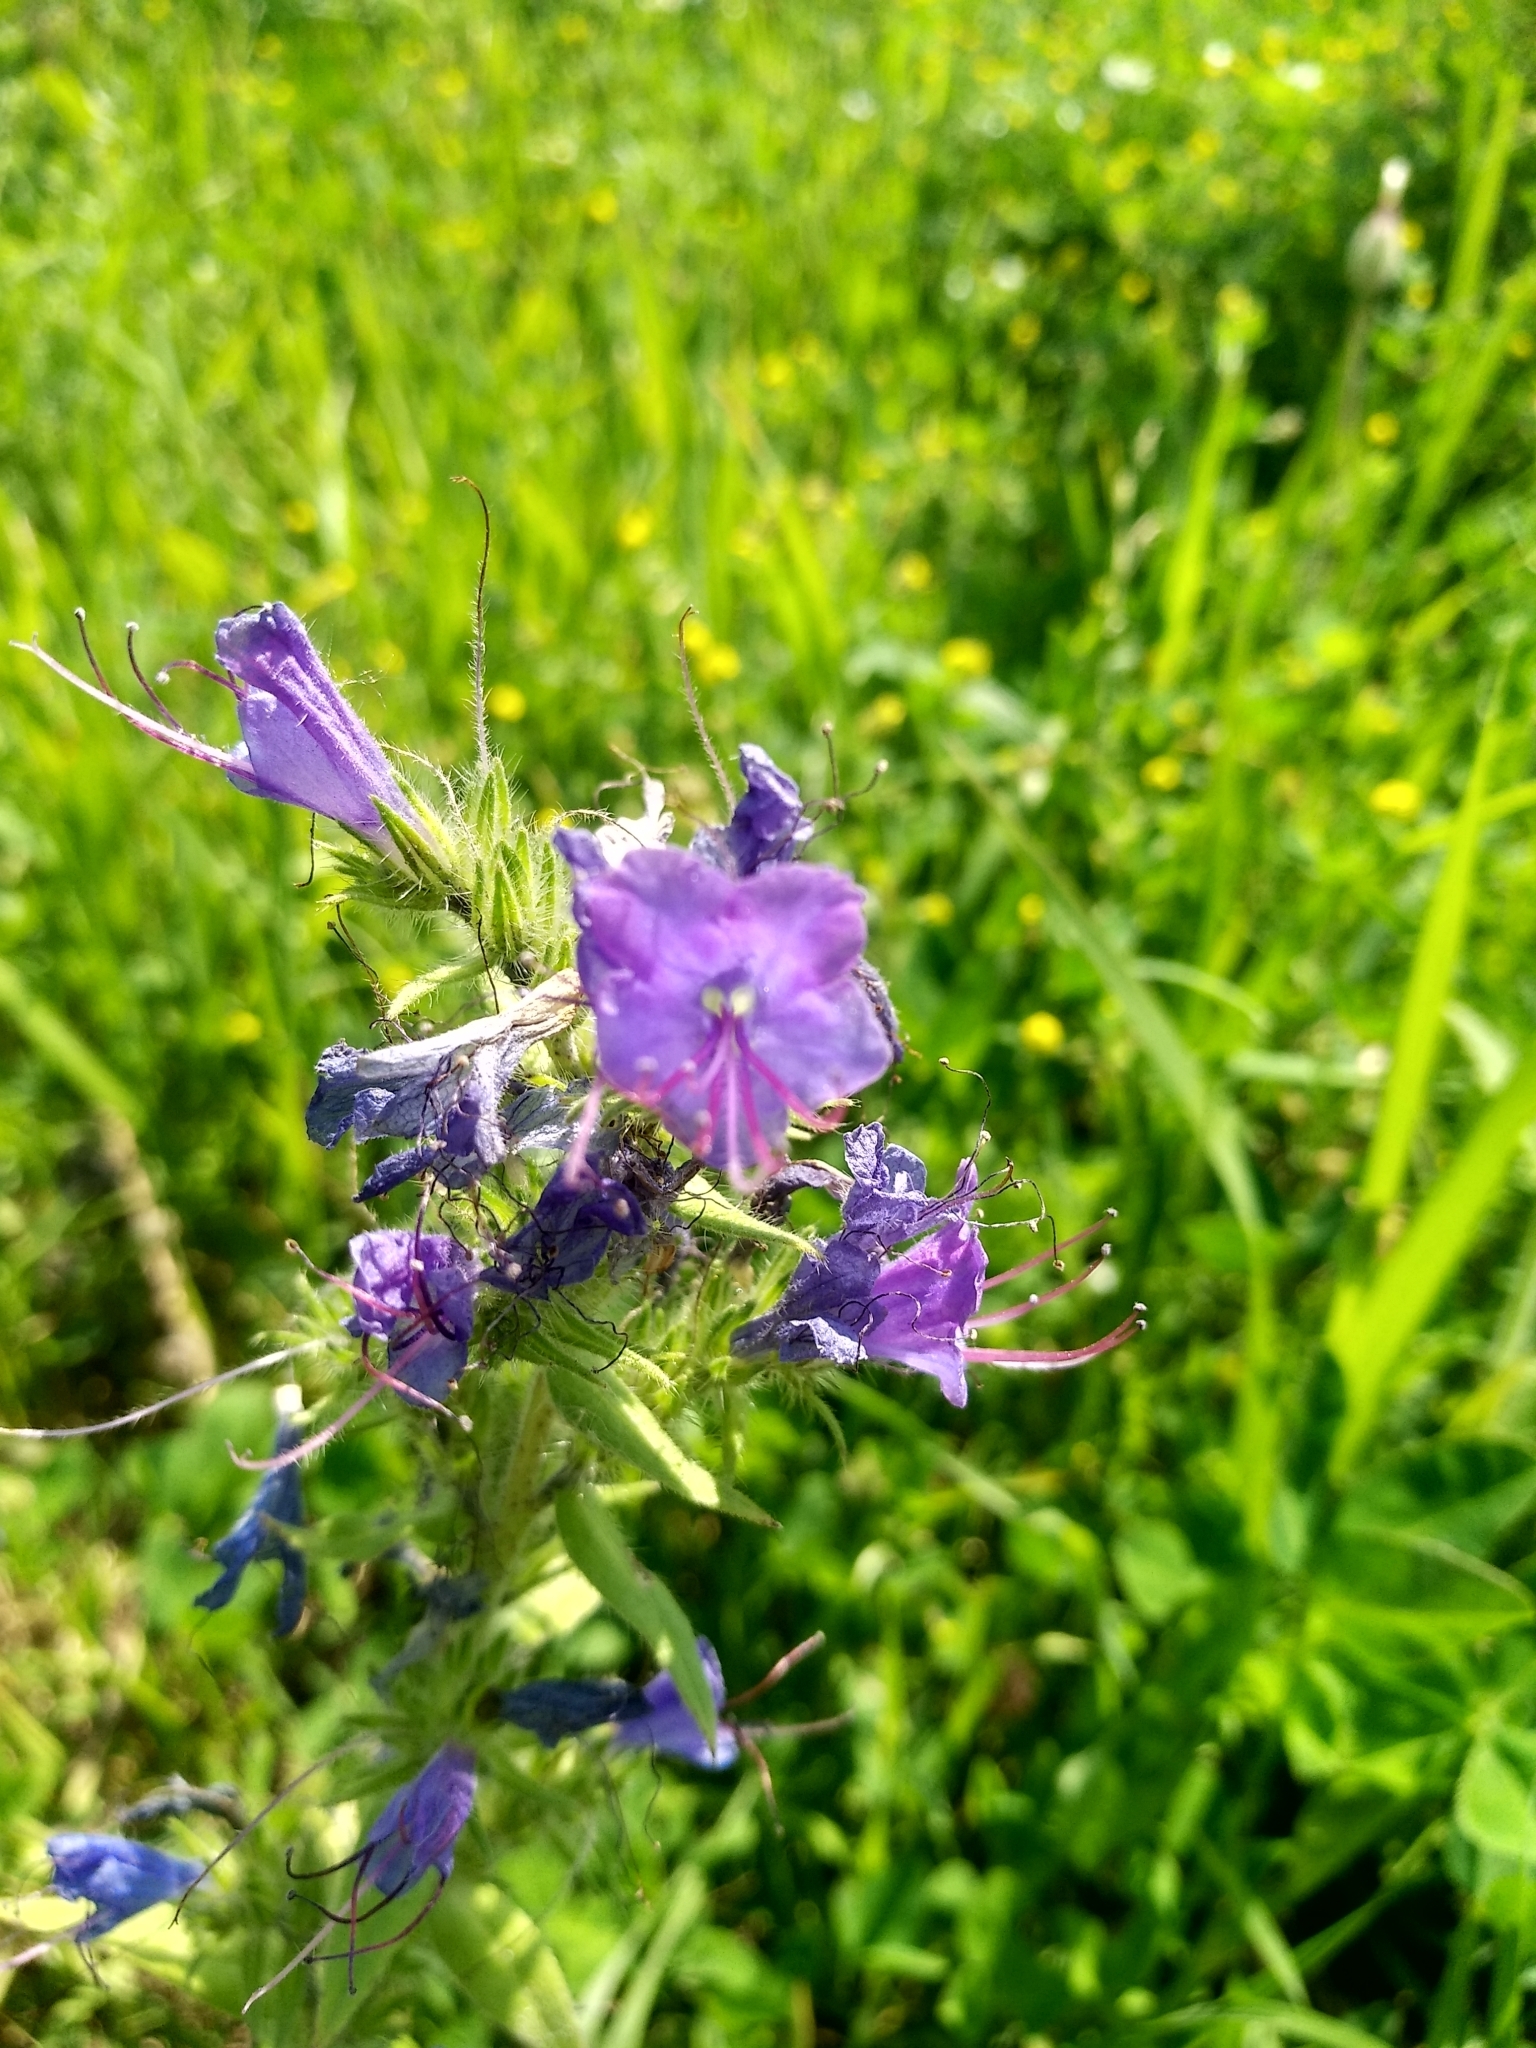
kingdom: Plantae
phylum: Tracheophyta
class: Magnoliopsida
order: Boraginales
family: Boraginaceae
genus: Echium
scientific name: Echium vulgare
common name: Common viper's bugloss
